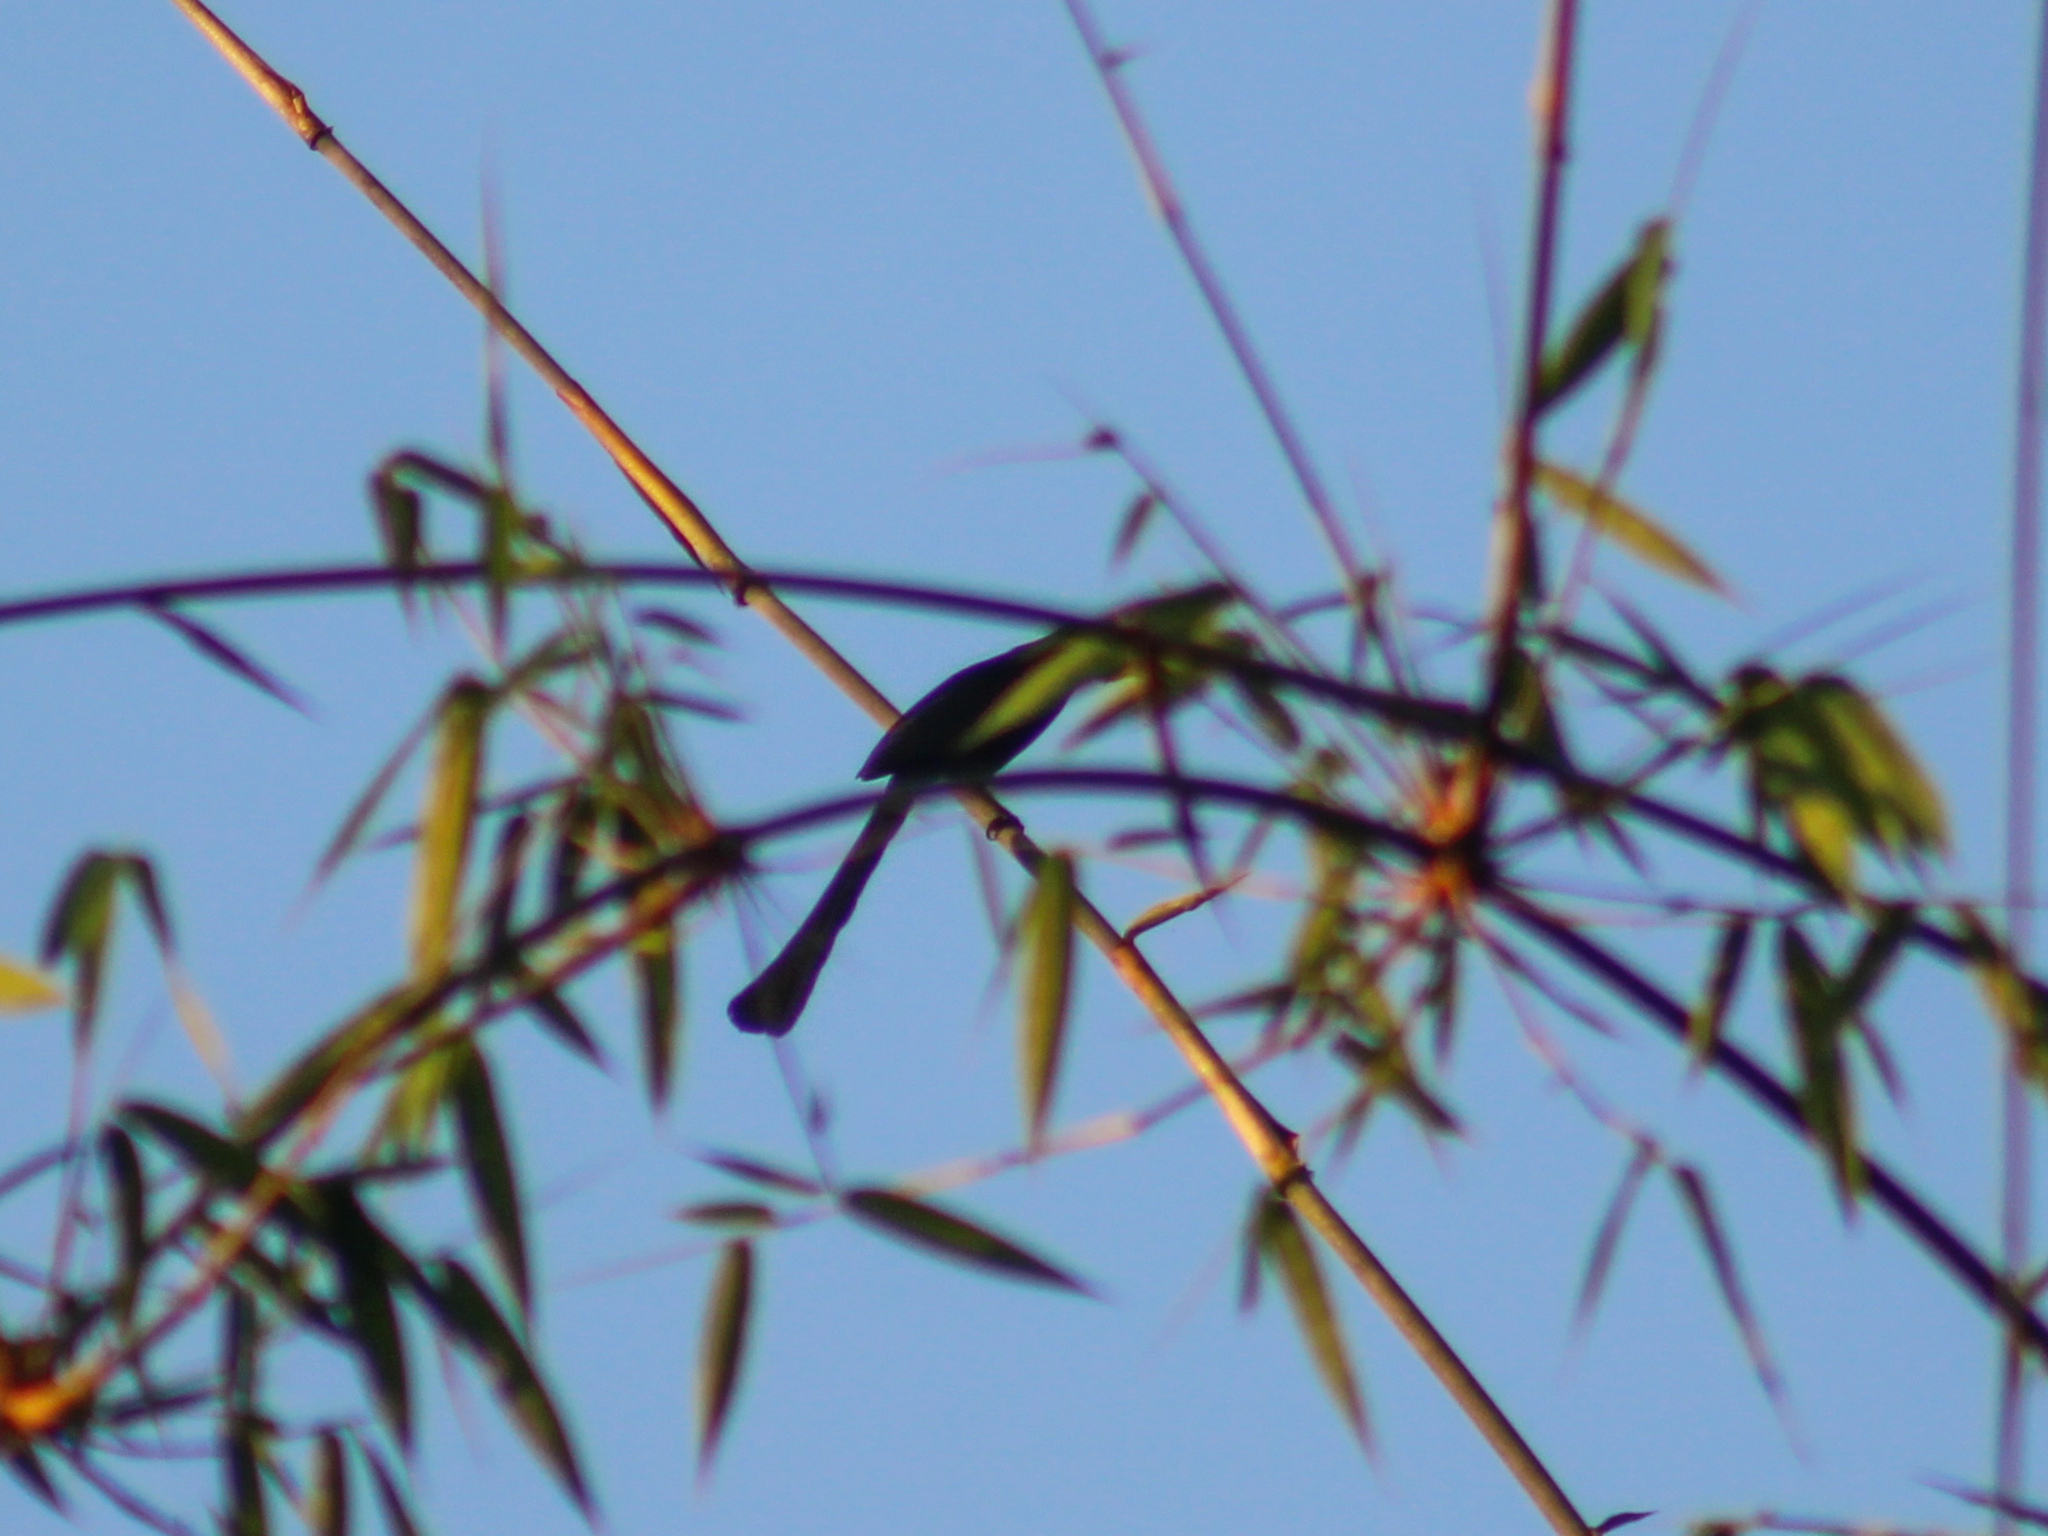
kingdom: Animalia
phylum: Chordata
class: Aves
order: Passeriformes
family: Corvidae
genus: Crypsirina
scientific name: Crypsirina temia
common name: Racket-tailed treepie
